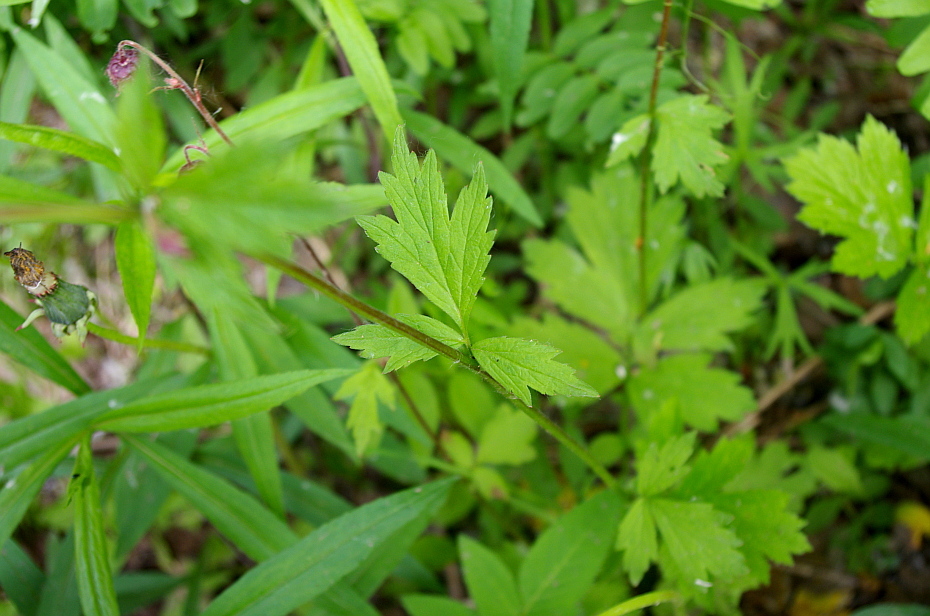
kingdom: Plantae
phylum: Tracheophyta
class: Magnoliopsida
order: Rosales
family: Rosaceae
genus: Geum
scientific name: Geum rivale
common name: Water avens
